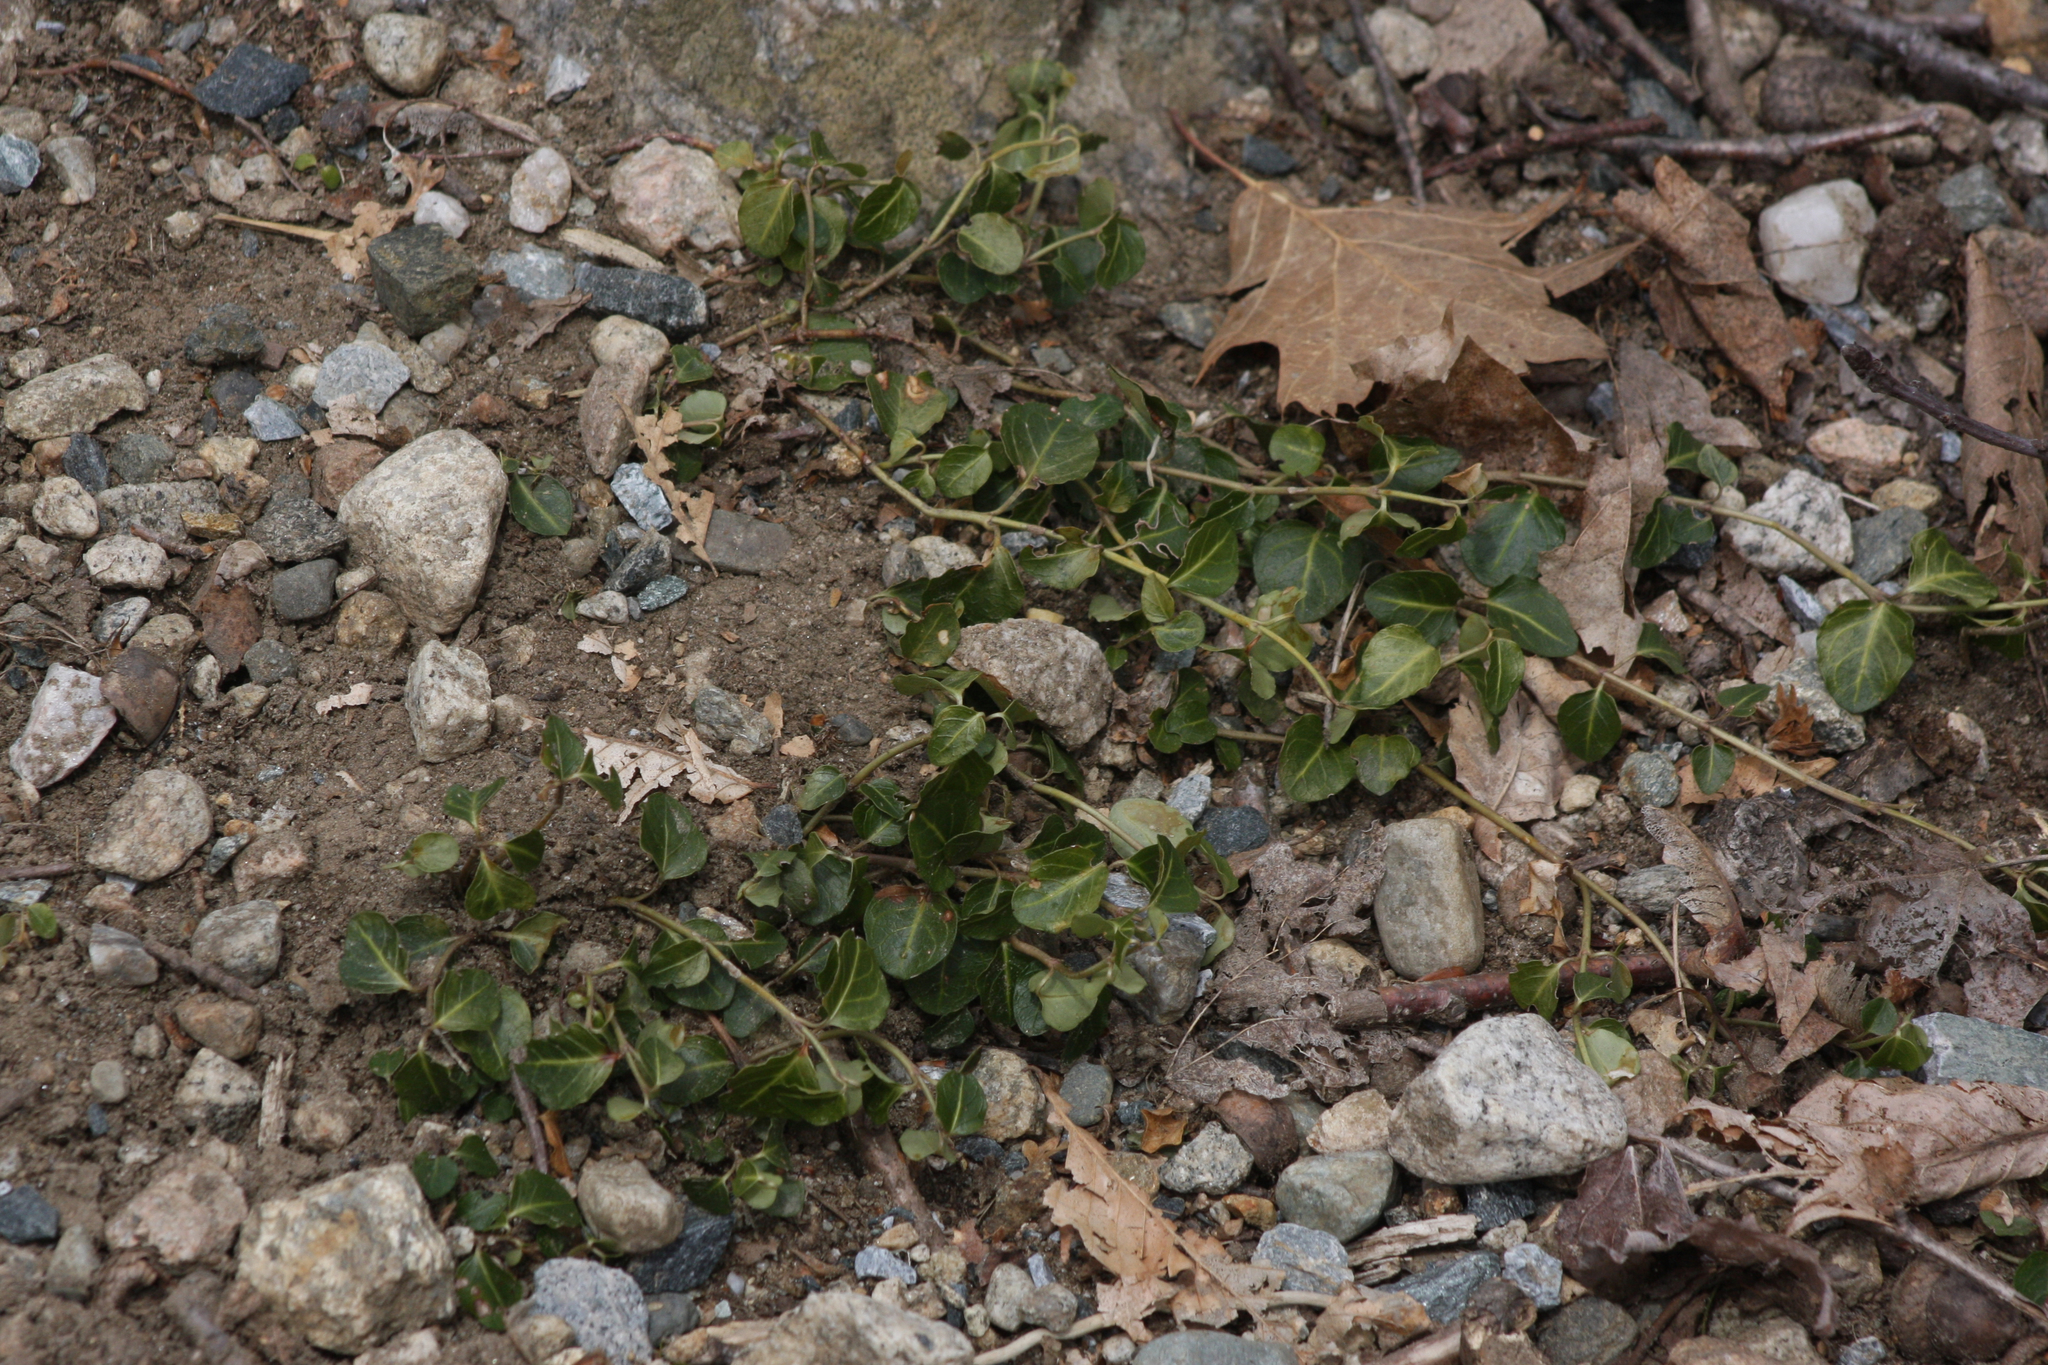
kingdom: Plantae
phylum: Tracheophyta
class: Magnoliopsida
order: Gentianales
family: Rubiaceae
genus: Mitchella
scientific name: Mitchella repens
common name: Partridge-berry
